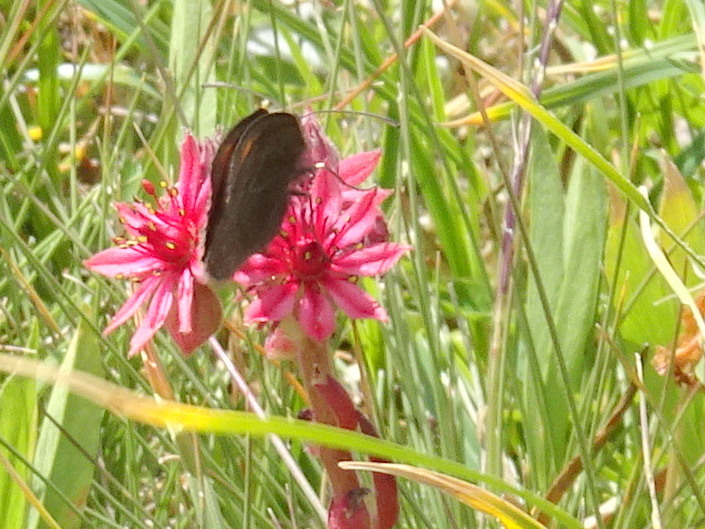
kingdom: Animalia
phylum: Arthropoda
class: Insecta
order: Lepidoptera
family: Nymphalidae
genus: Erebia
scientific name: Erebia mnestra
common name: Mnestra’s ringlet
